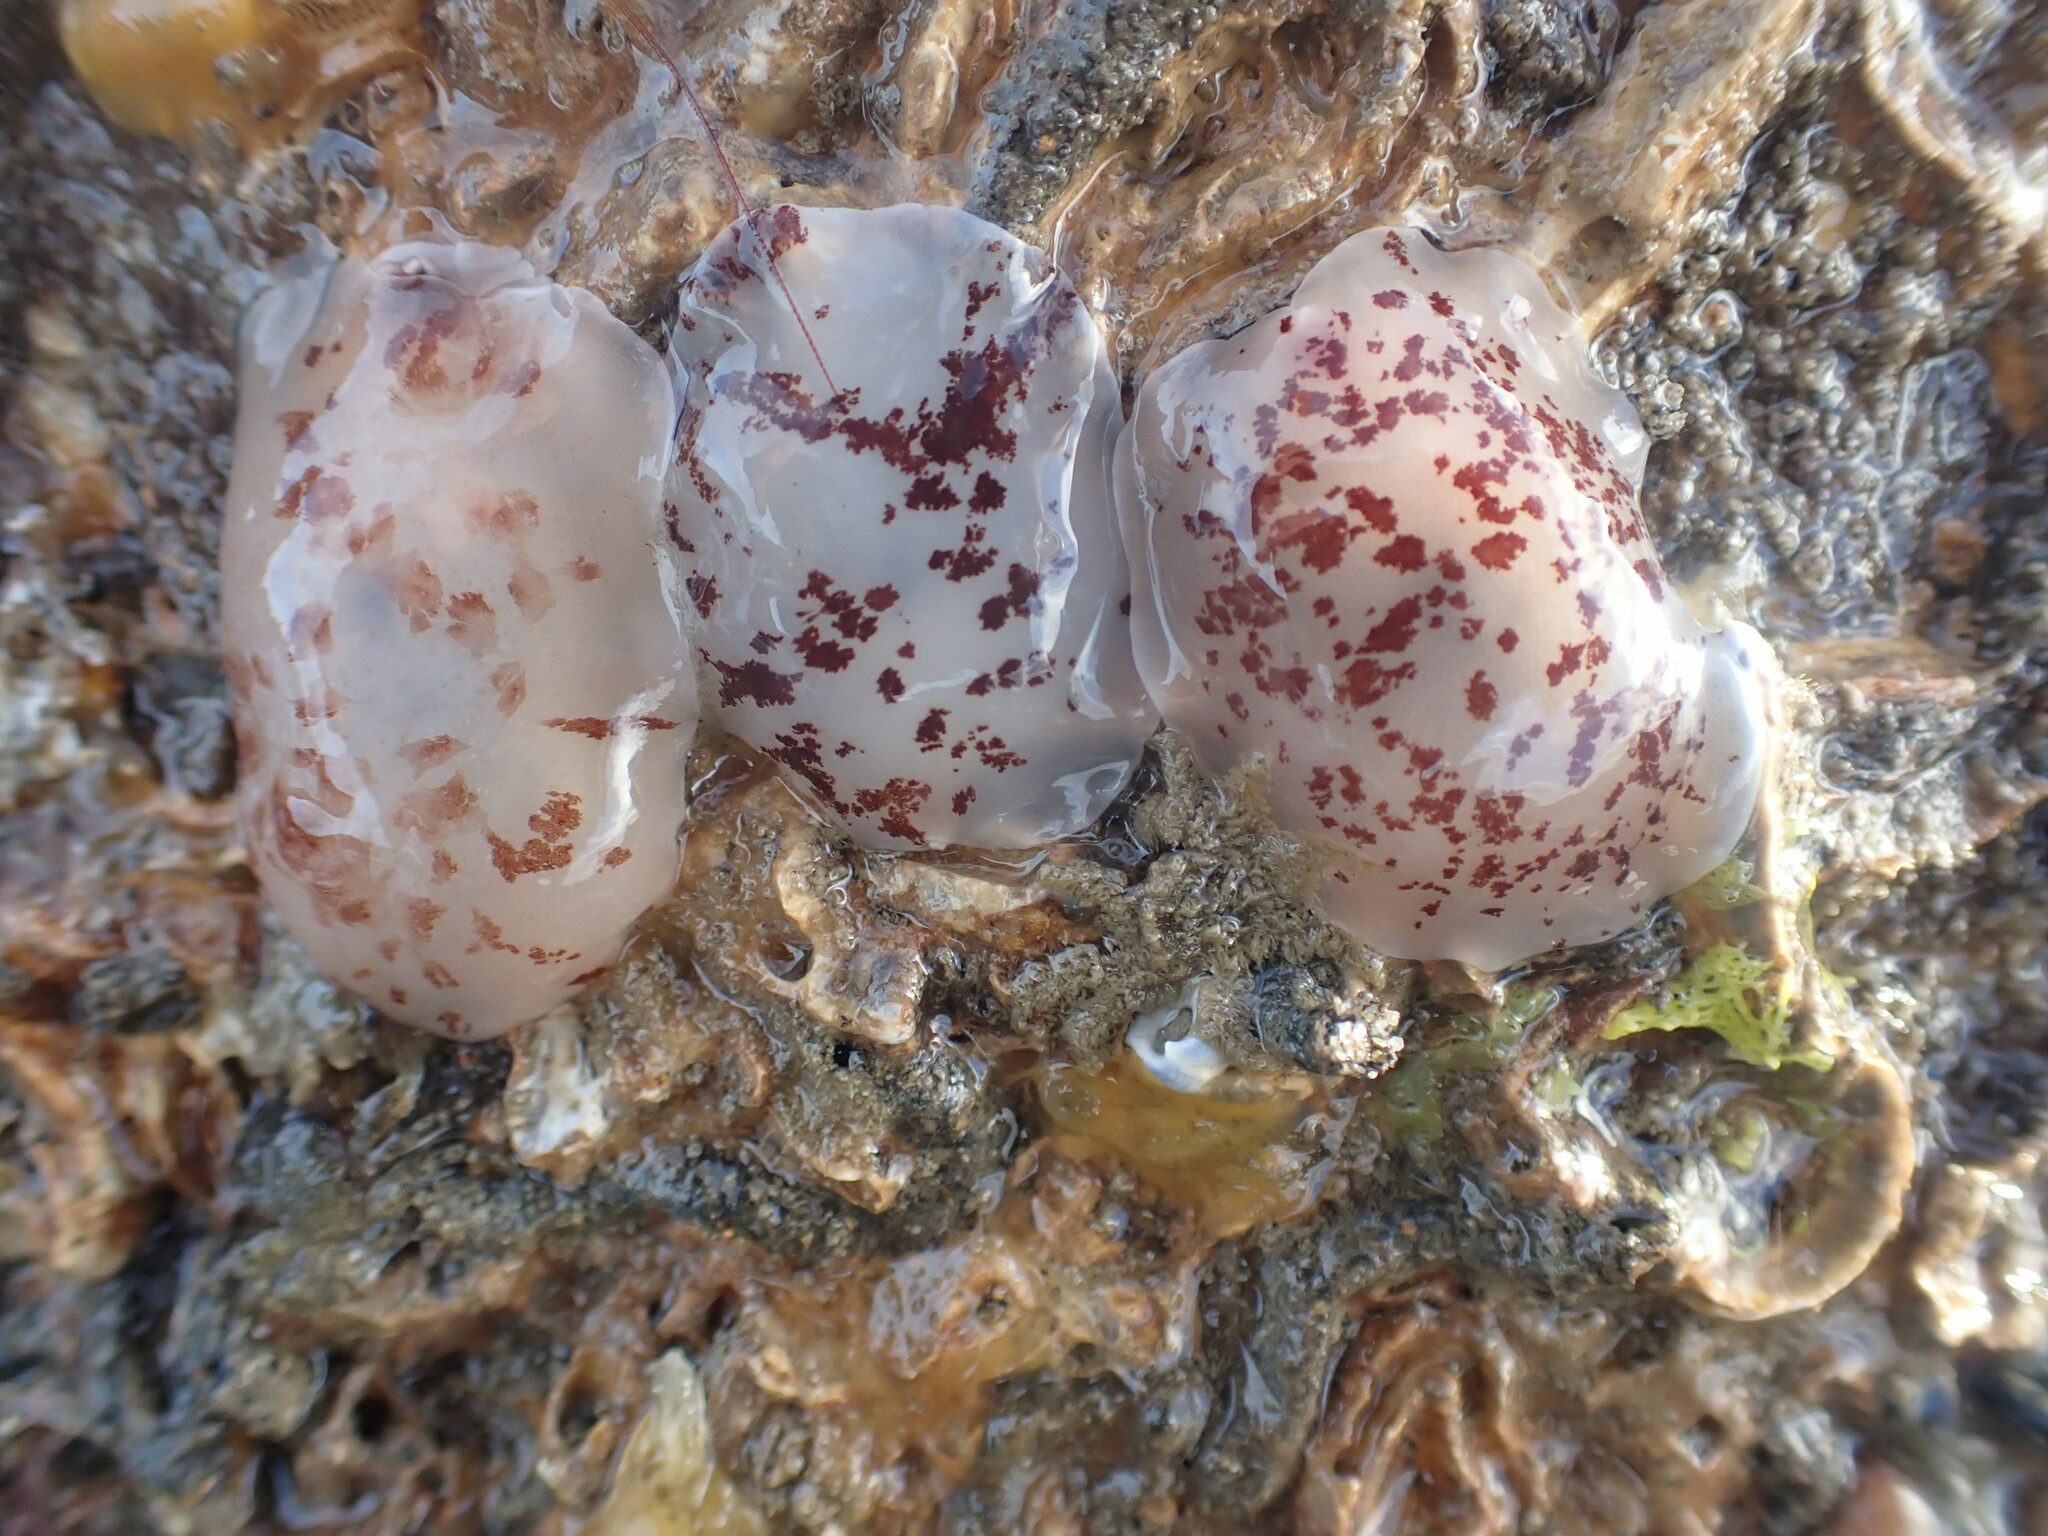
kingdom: Animalia
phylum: Mollusca
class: Gastropoda
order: Pleurobranchida
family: Pleurobranchidae
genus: Berthella
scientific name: Berthella ornata
